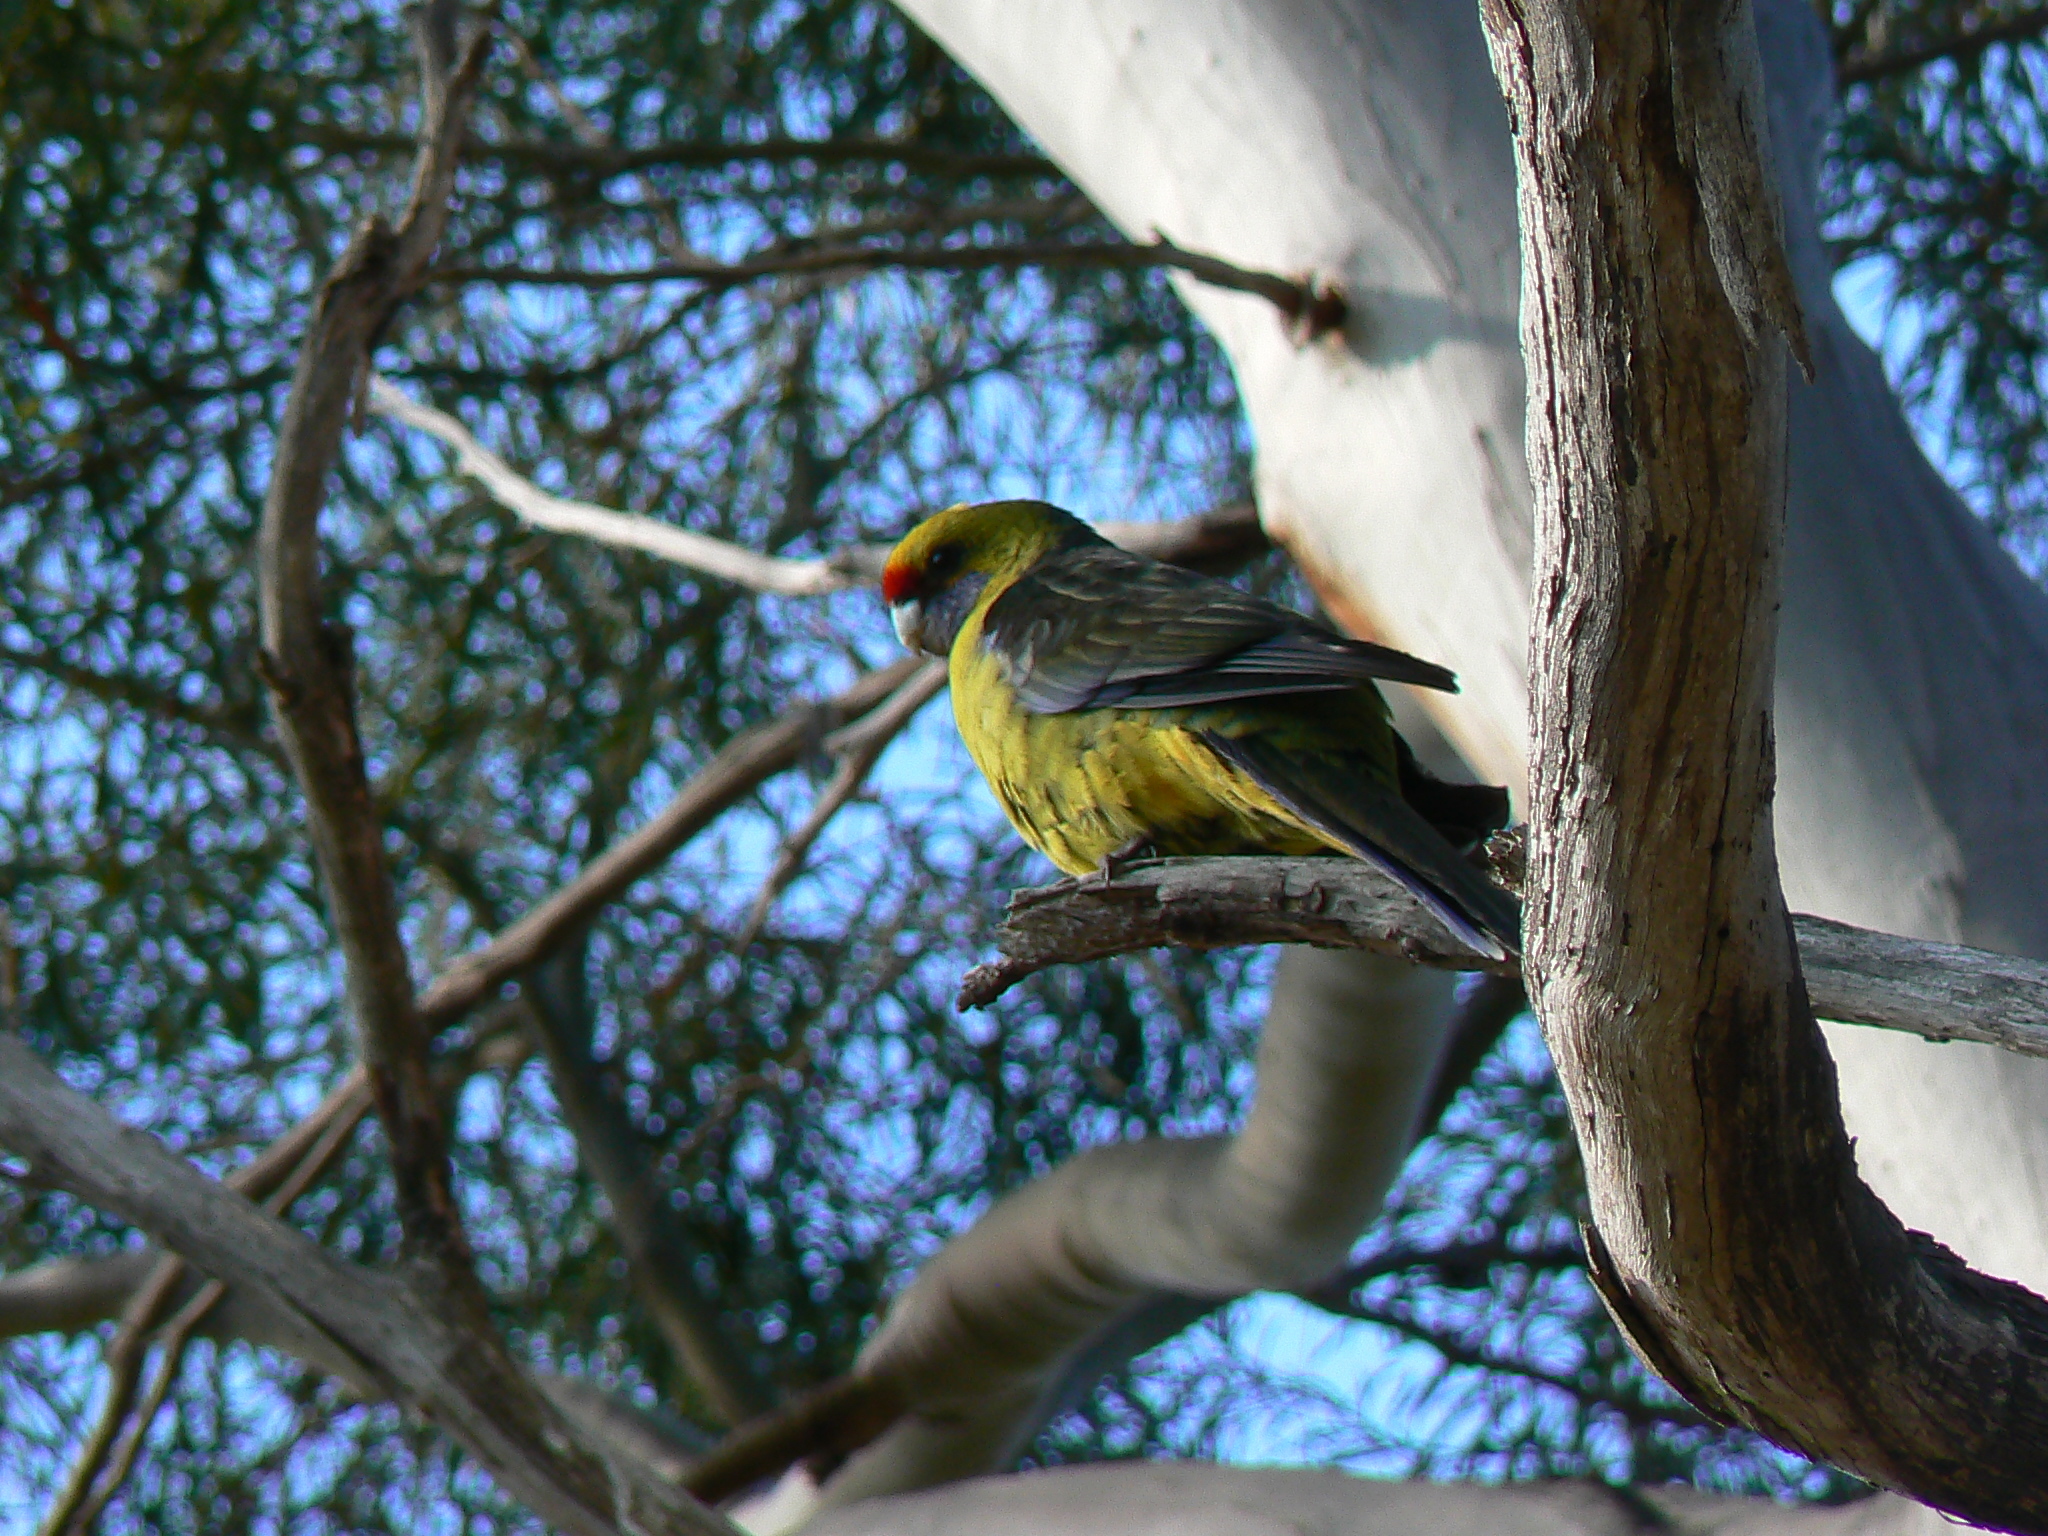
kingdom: Animalia
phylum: Chordata
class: Aves
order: Psittaciformes
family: Psittacidae
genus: Platycercus
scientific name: Platycercus caledonicus
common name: Green rosella
